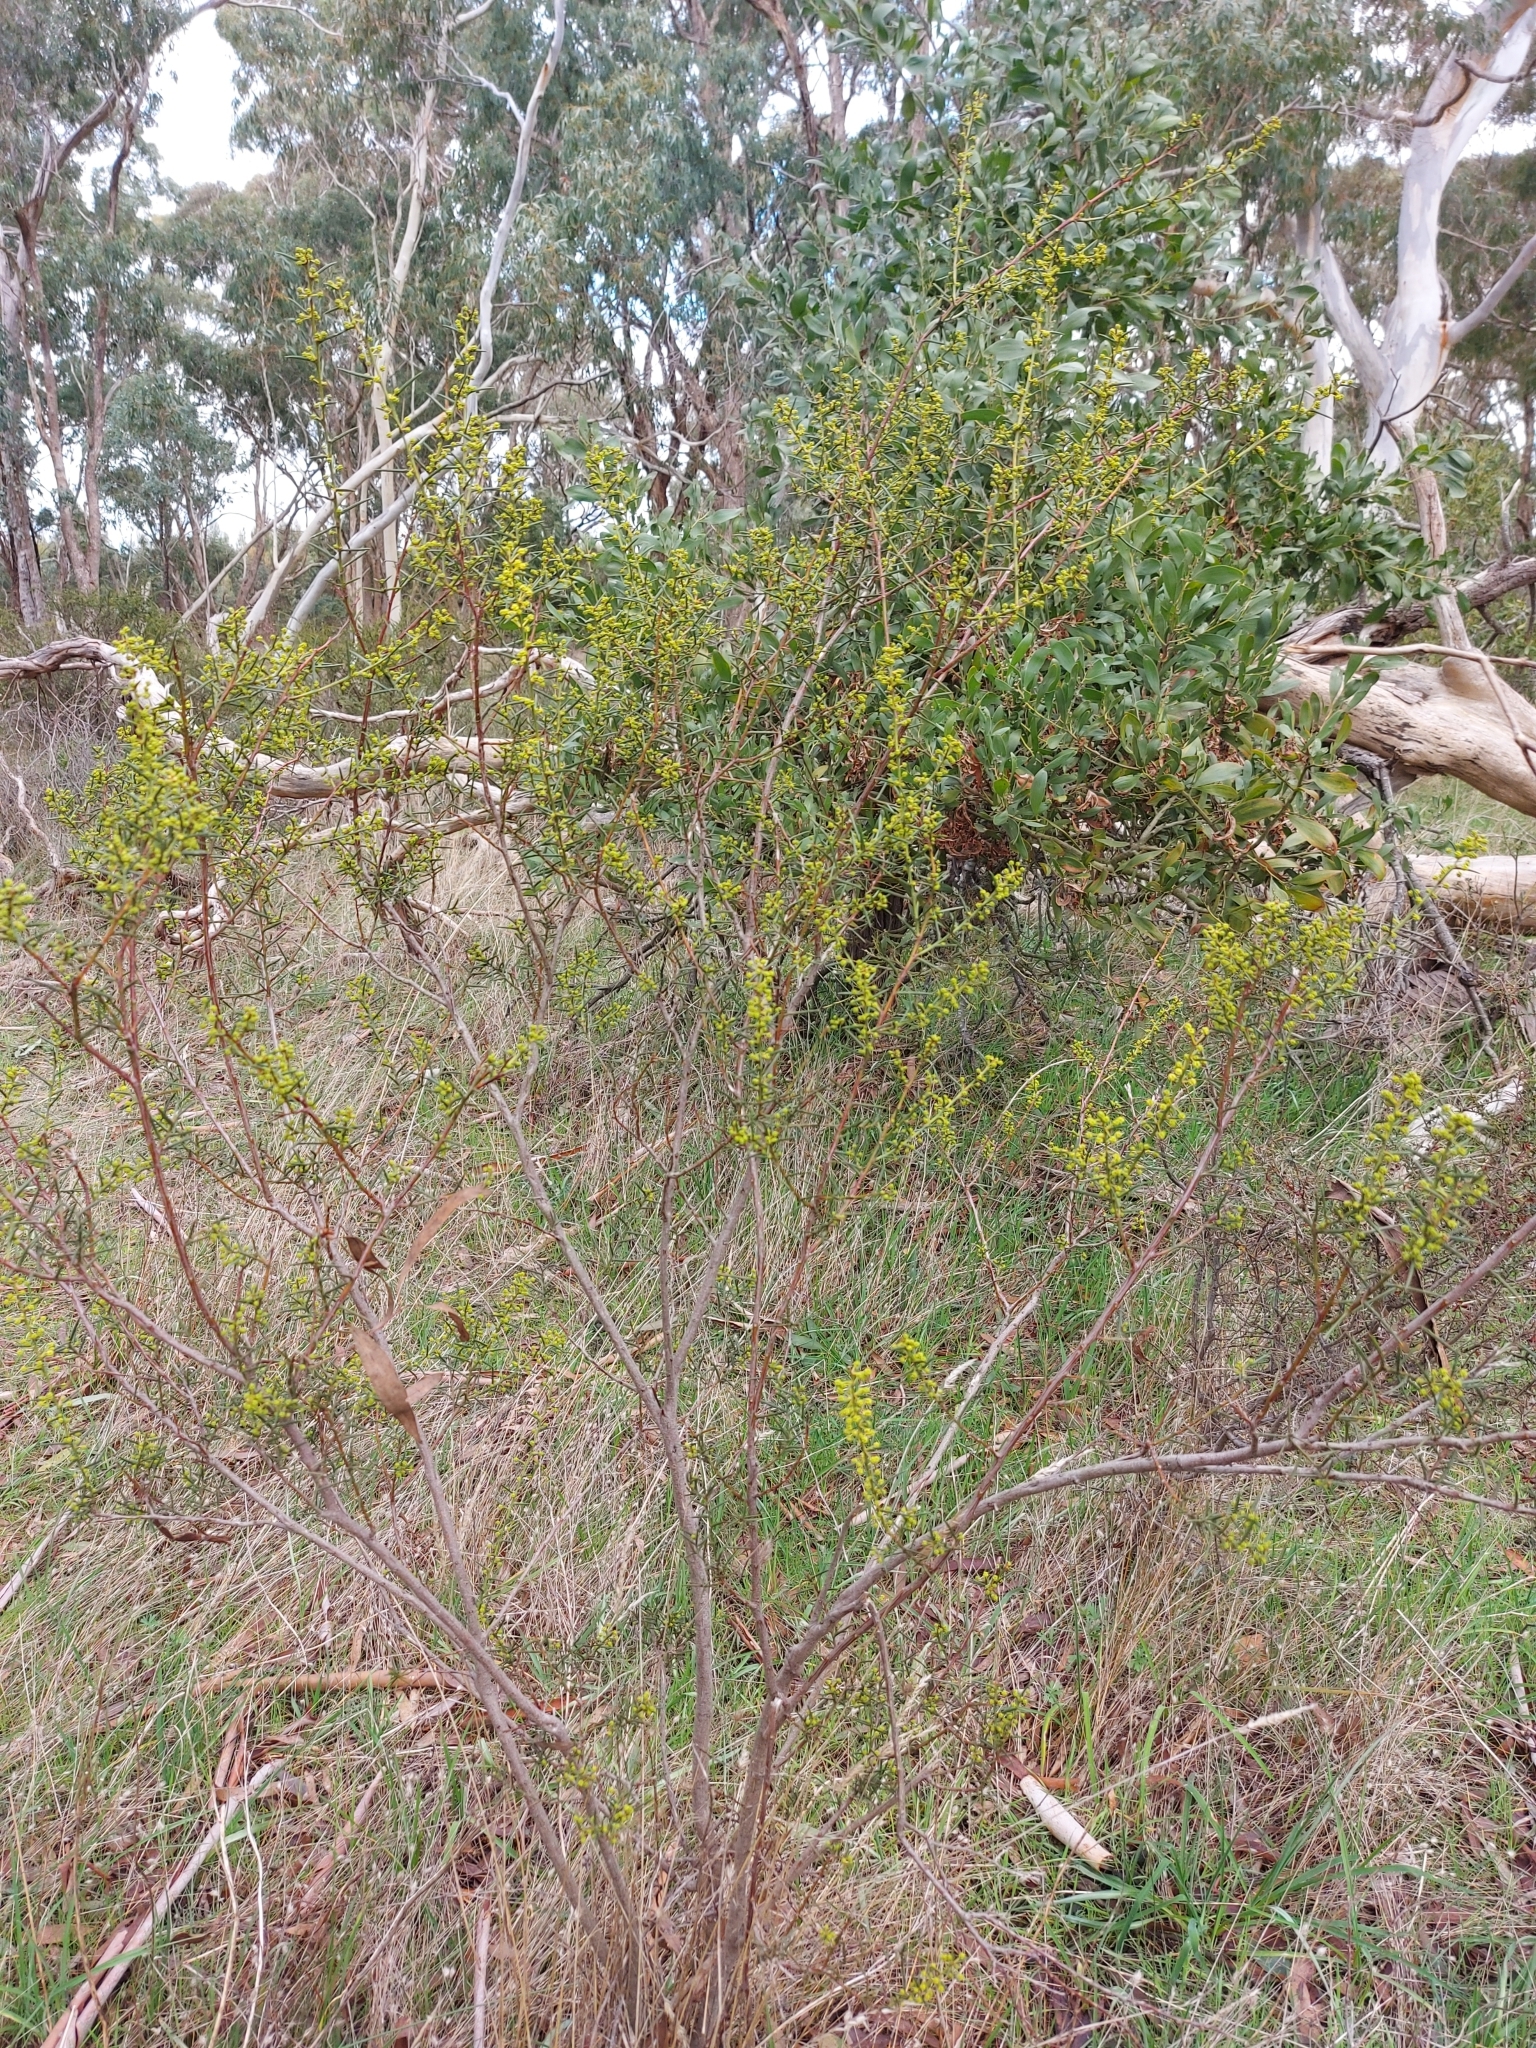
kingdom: Plantae
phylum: Tracheophyta
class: Magnoliopsida
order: Fabales
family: Fabaceae
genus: Acacia
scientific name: Acacia genistifolia
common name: Early wattle
